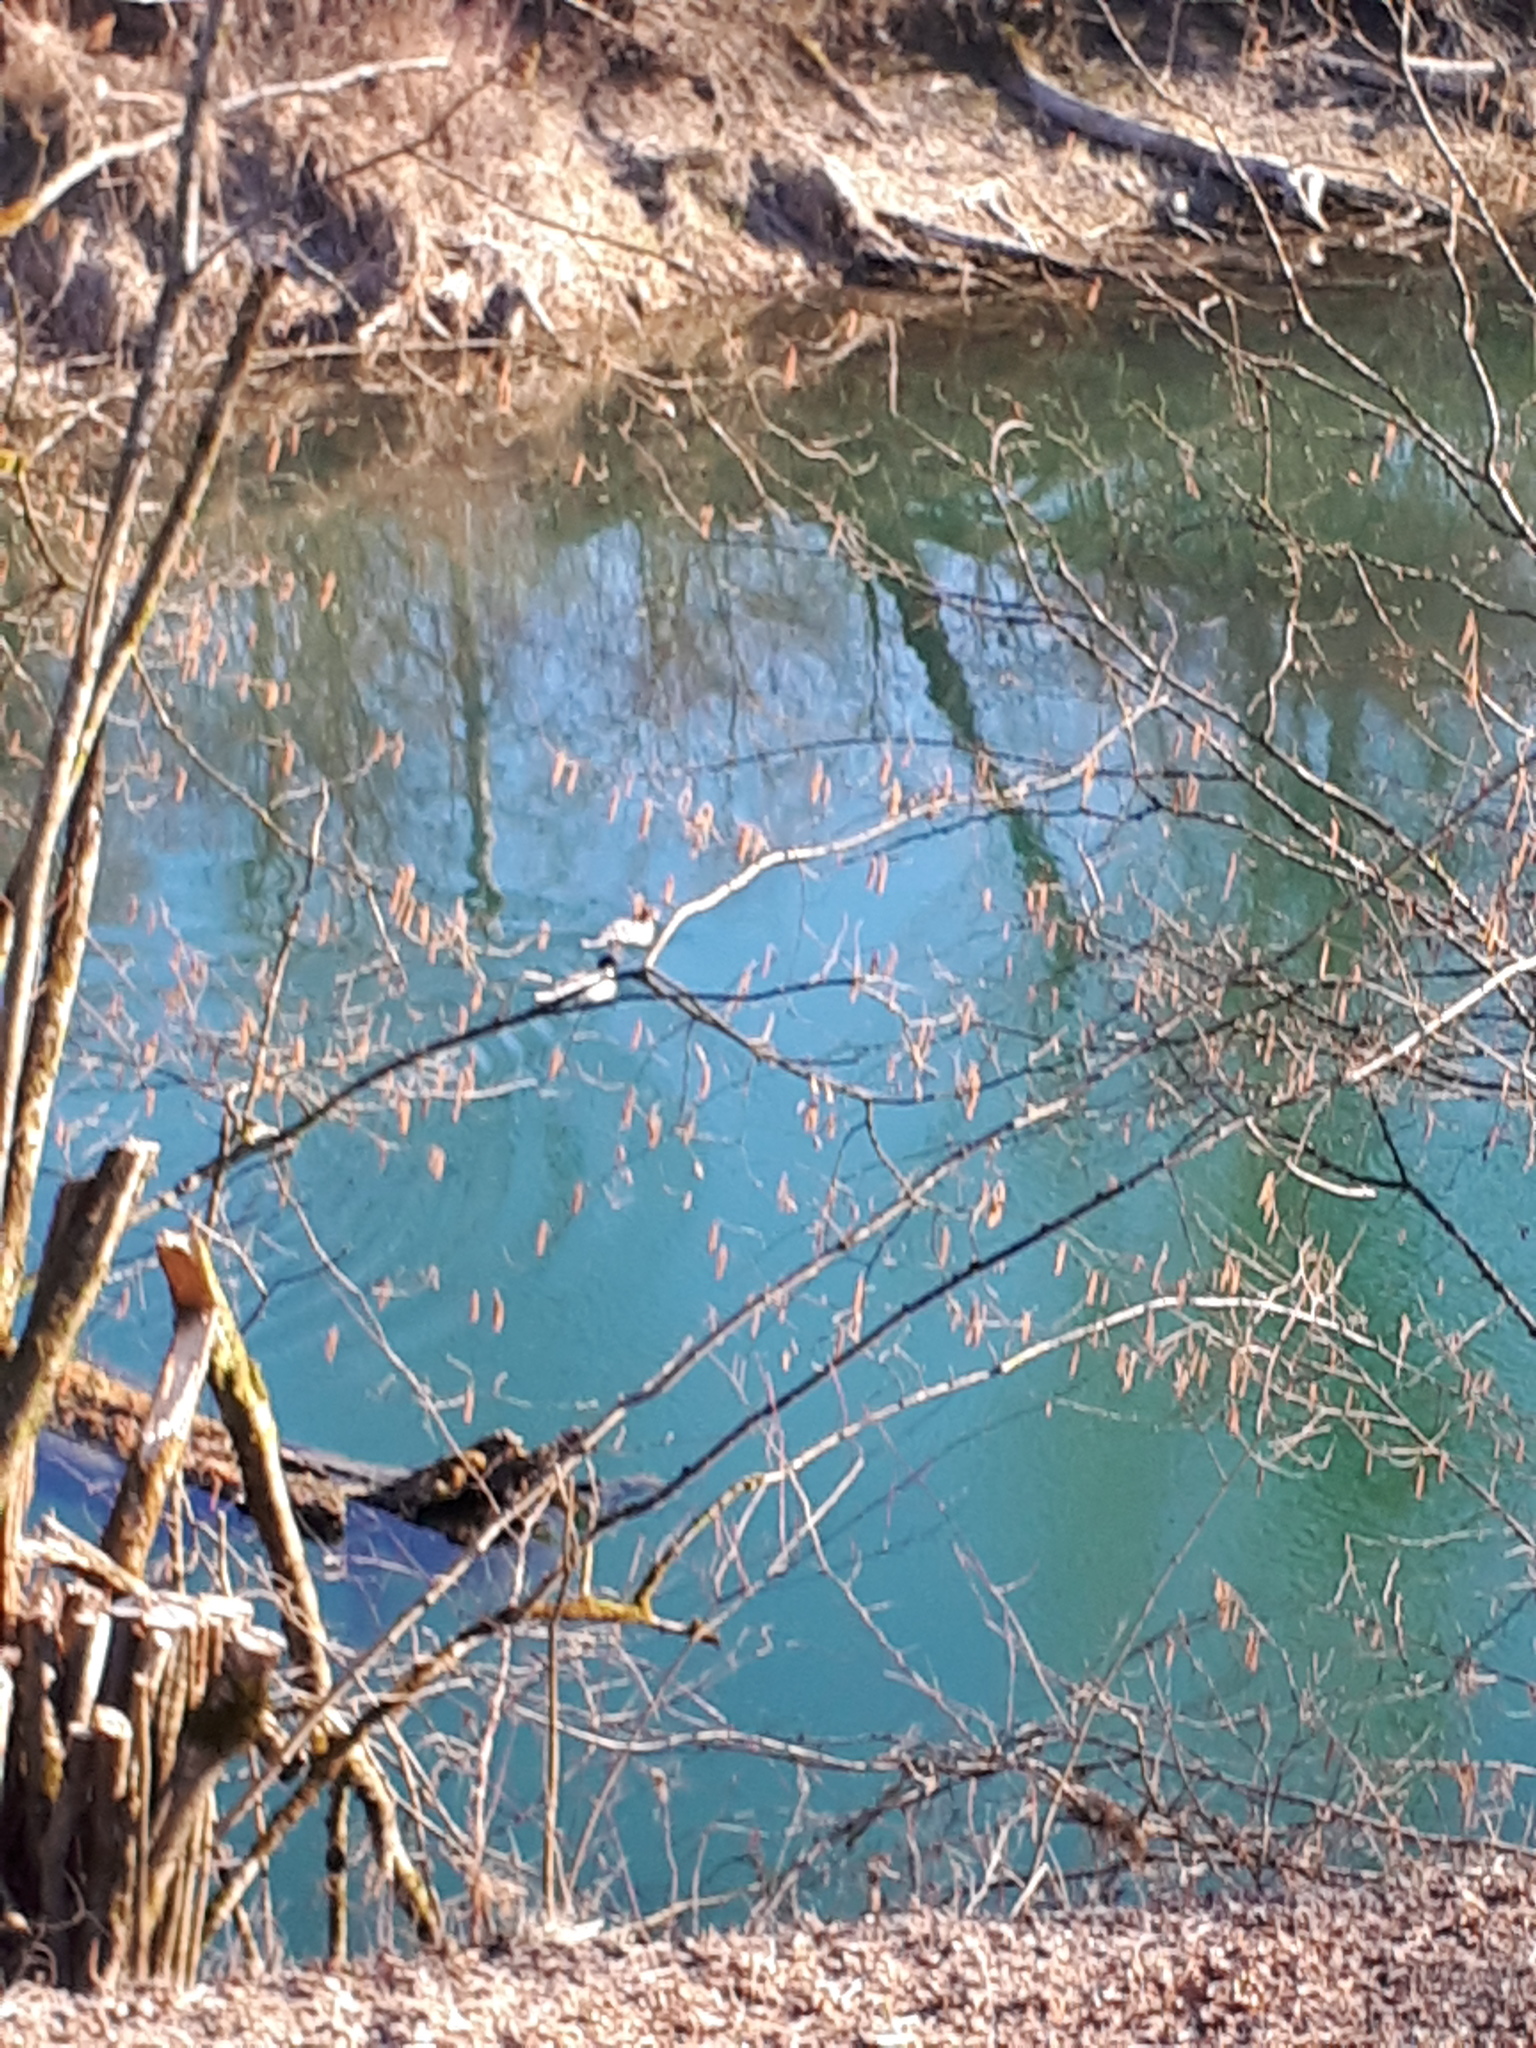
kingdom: Animalia
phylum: Chordata
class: Aves
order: Anseriformes
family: Anatidae
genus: Mergus
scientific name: Mergus merganser
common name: Common merganser
